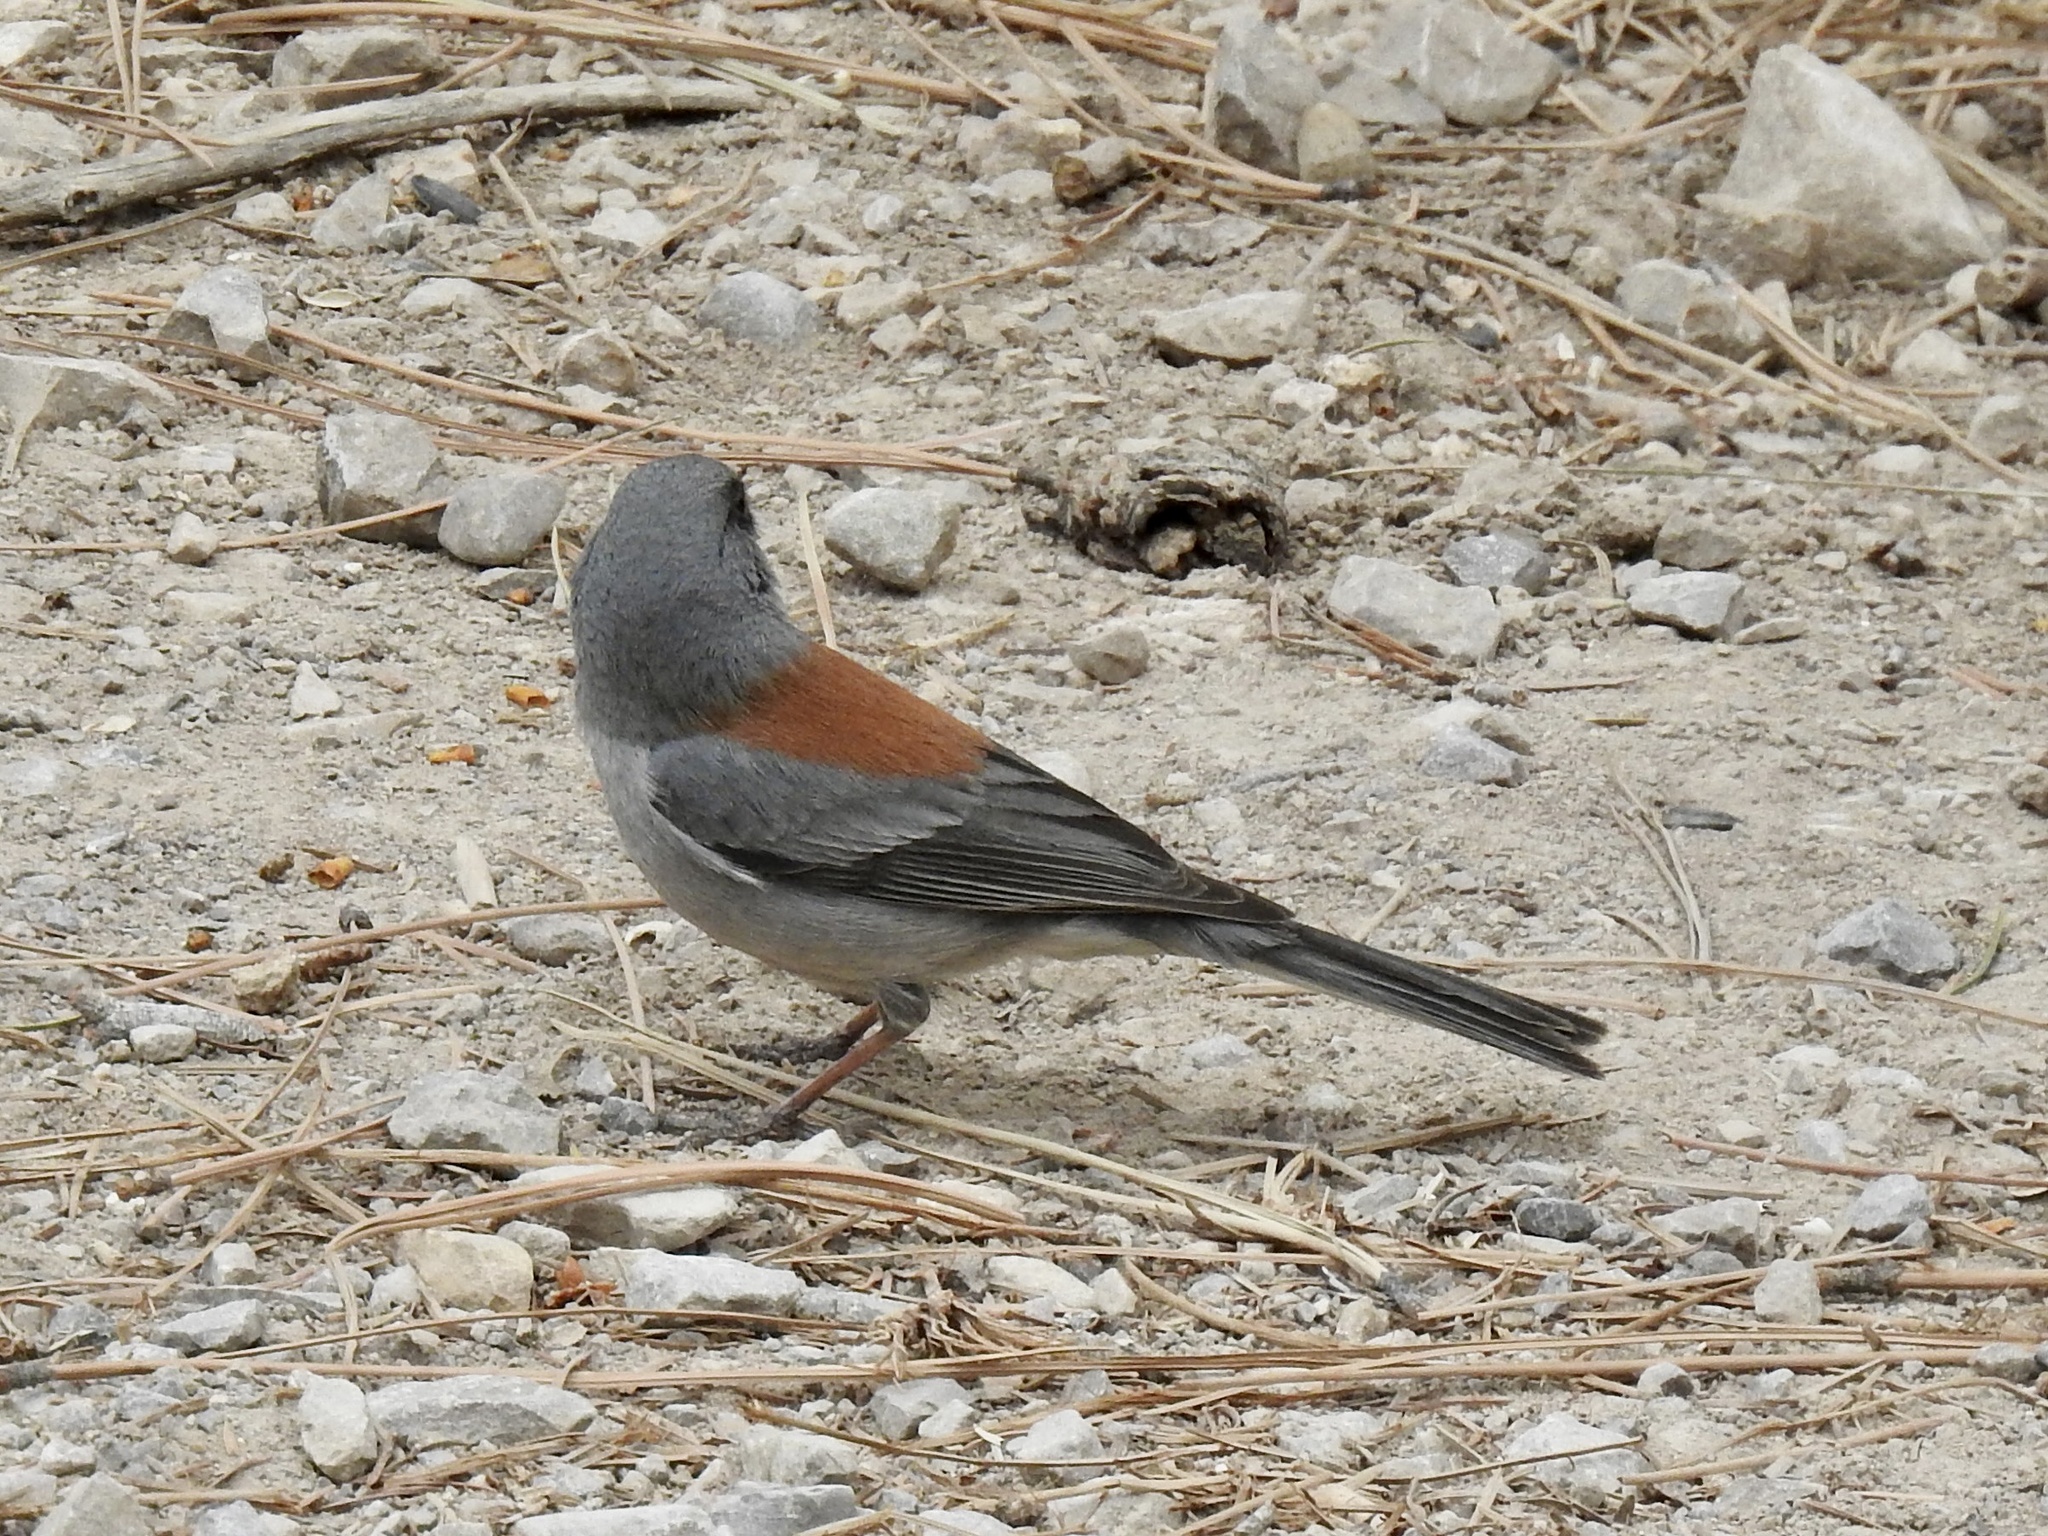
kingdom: Animalia
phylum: Chordata
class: Aves
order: Passeriformes
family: Passerellidae
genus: Junco
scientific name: Junco hyemalis
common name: Dark-eyed junco
